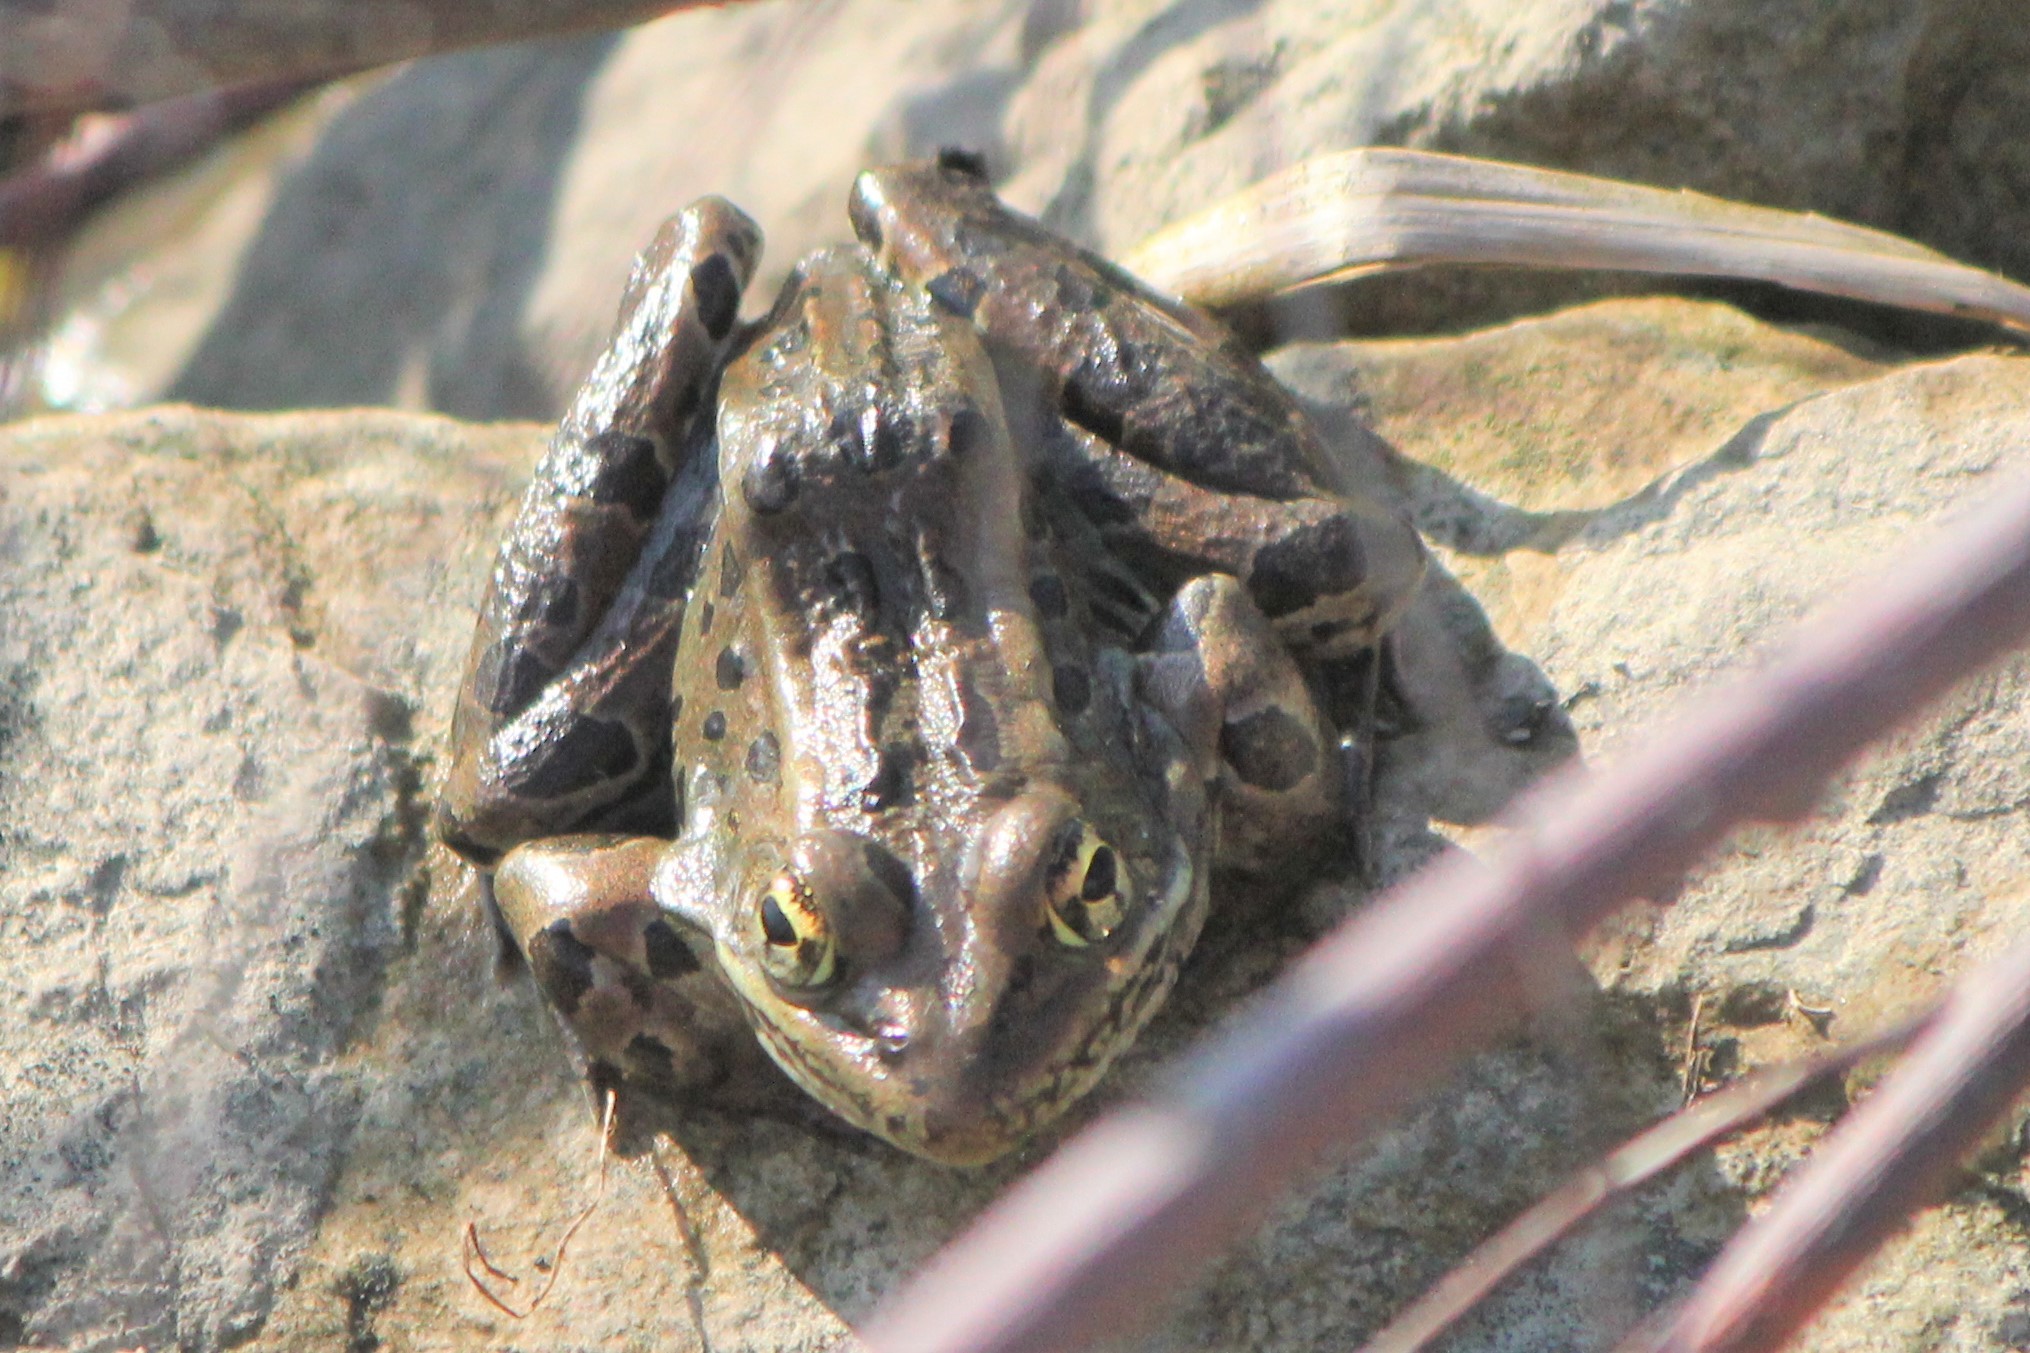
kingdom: Animalia
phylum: Chordata
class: Amphibia
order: Anura
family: Ranidae
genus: Lithobates
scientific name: Lithobates pipiens
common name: Northern leopard frog
